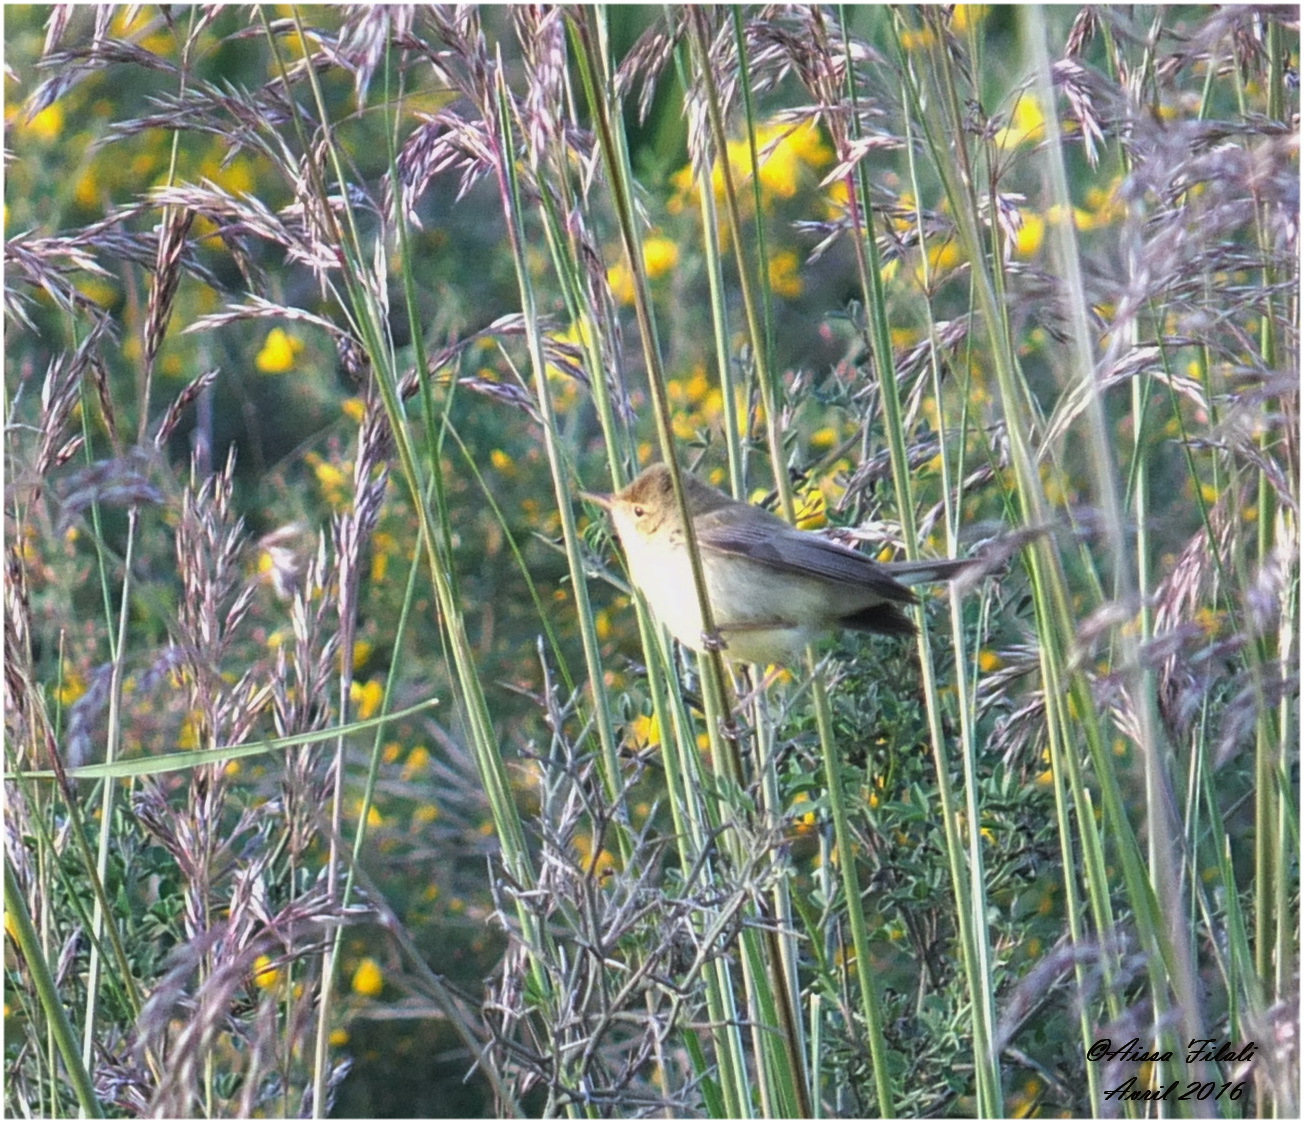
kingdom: Animalia
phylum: Chordata
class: Aves
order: Passeriformes
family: Acrocephalidae
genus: Hippolais
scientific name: Hippolais polyglotta
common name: Melodious warbler
